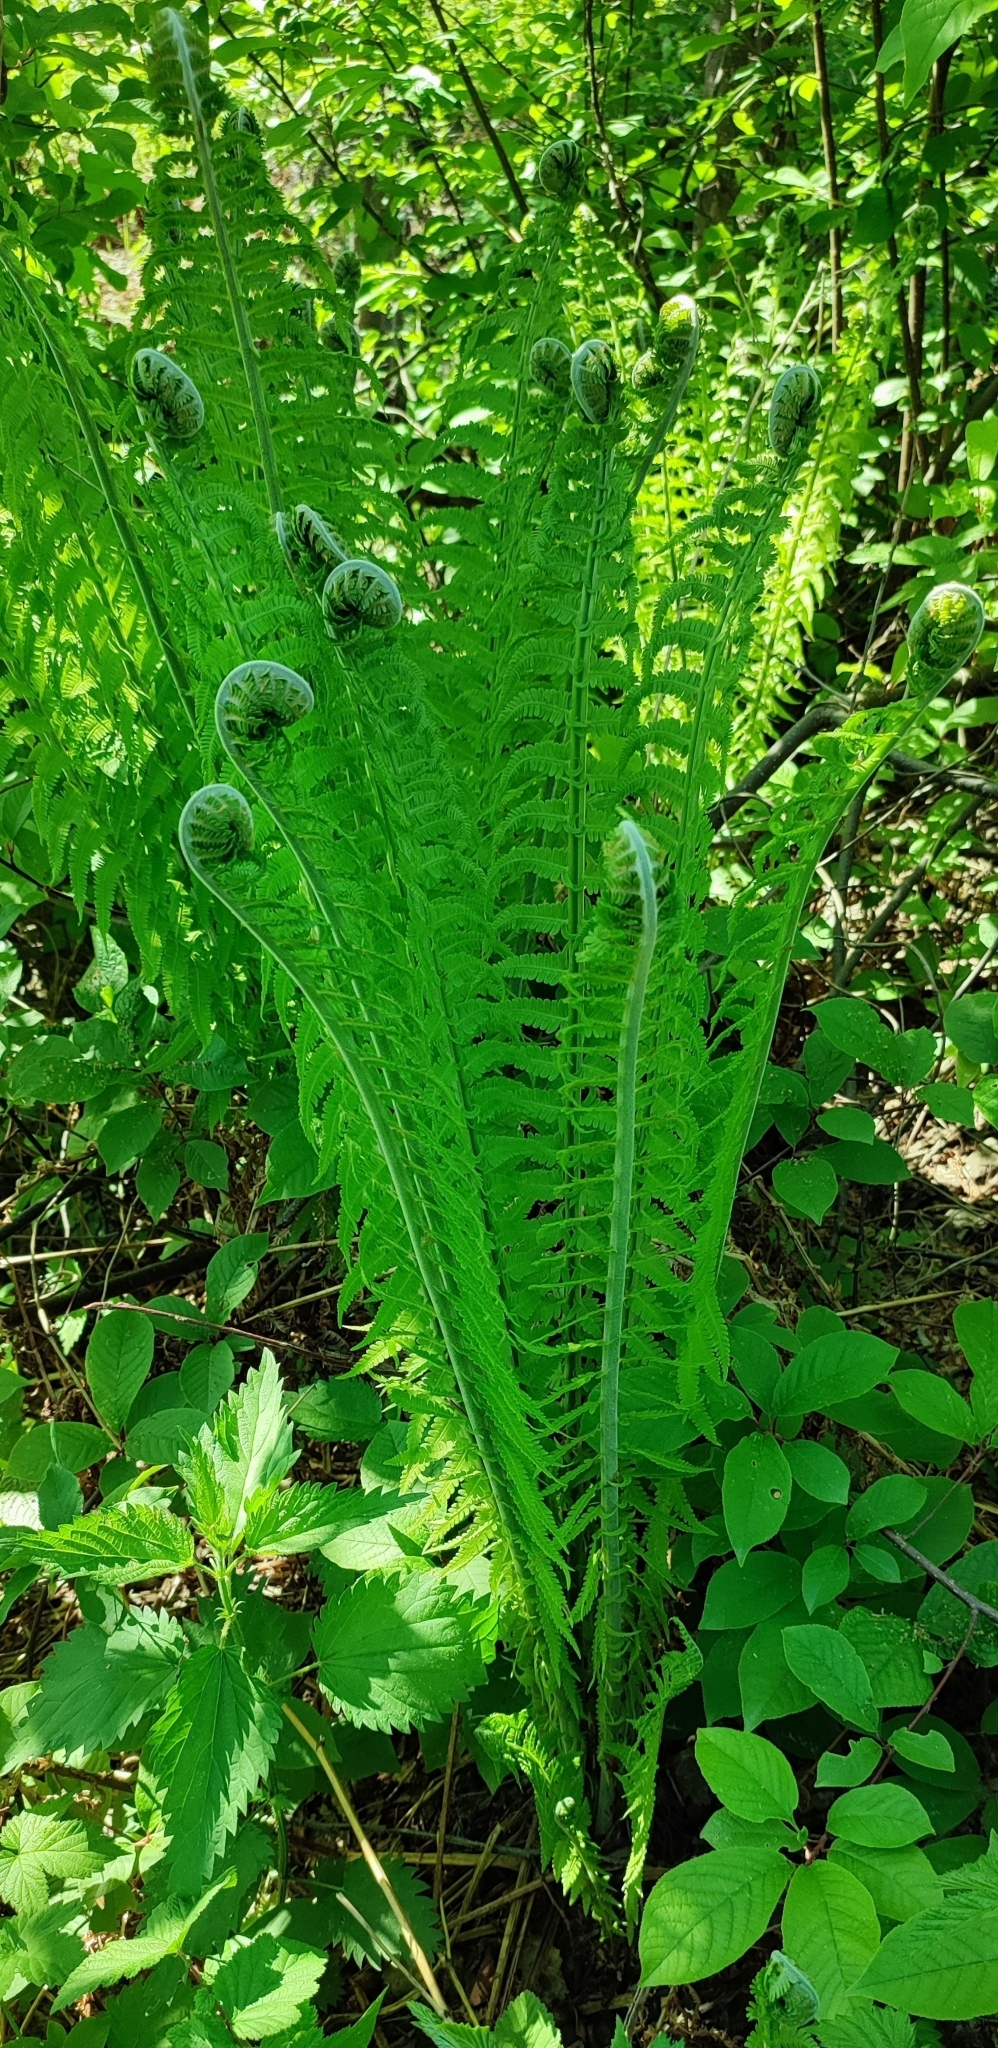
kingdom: Plantae
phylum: Tracheophyta
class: Polypodiopsida
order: Polypodiales
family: Onocleaceae
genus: Matteuccia
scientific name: Matteuccia struthiopteris
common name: Ostrich fern
